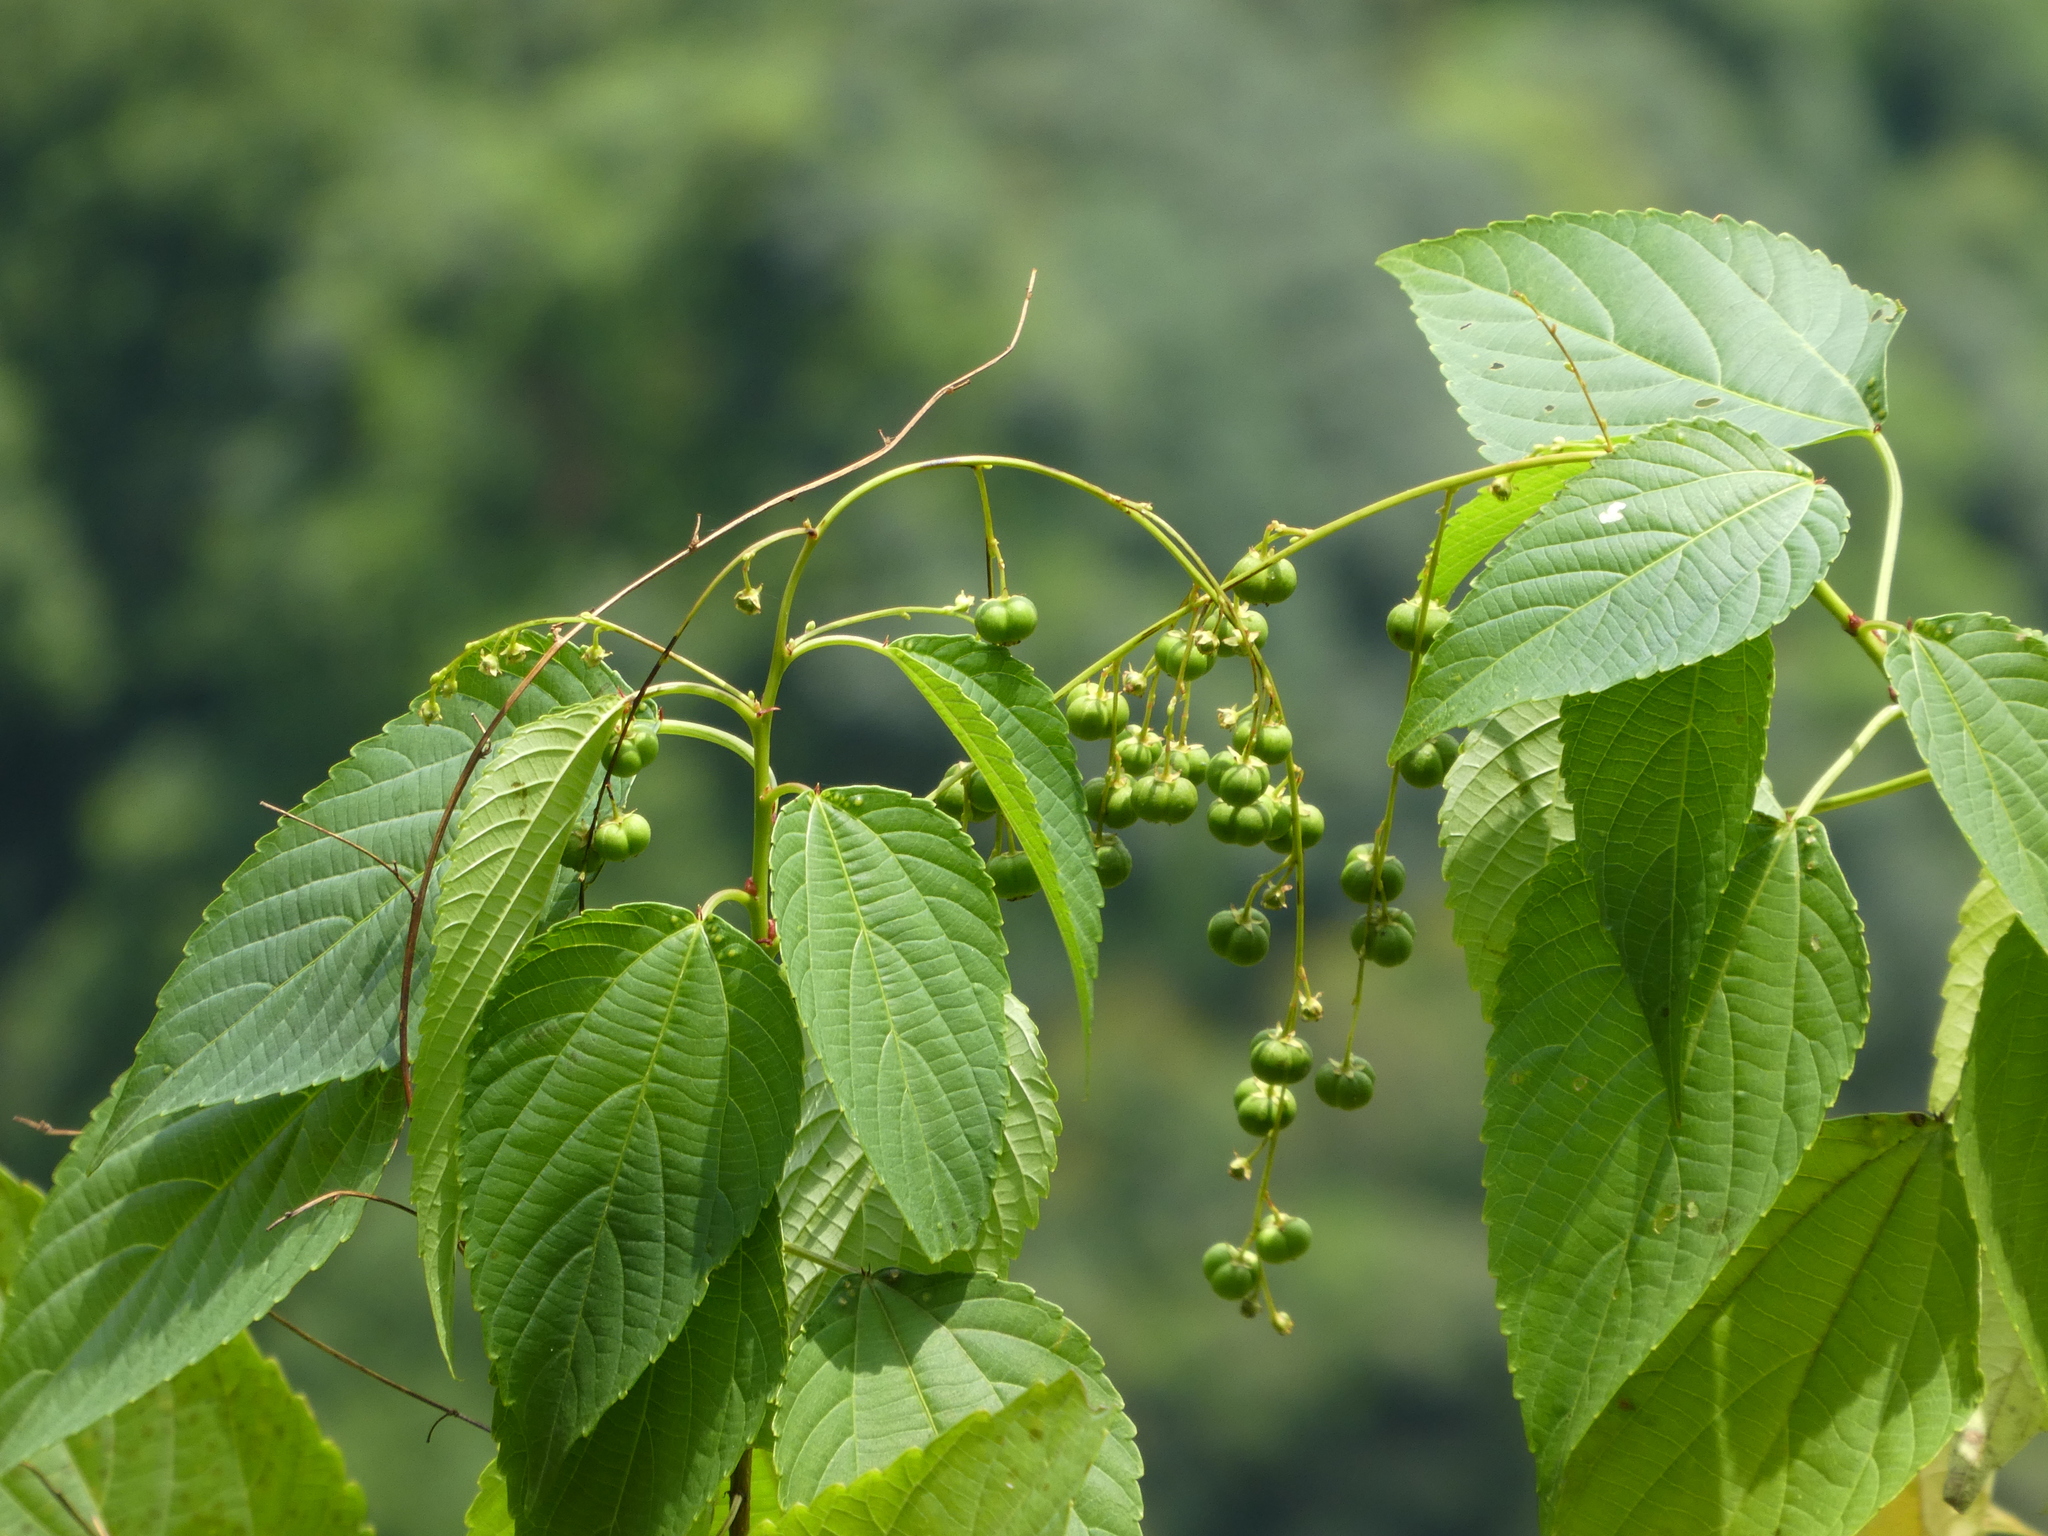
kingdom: Plantae
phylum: Tracheophyta
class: Magnoliopsida
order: Malpighiales
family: Euphorbiaceae
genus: Discocleidion
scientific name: Discocleidion ulmifolium
